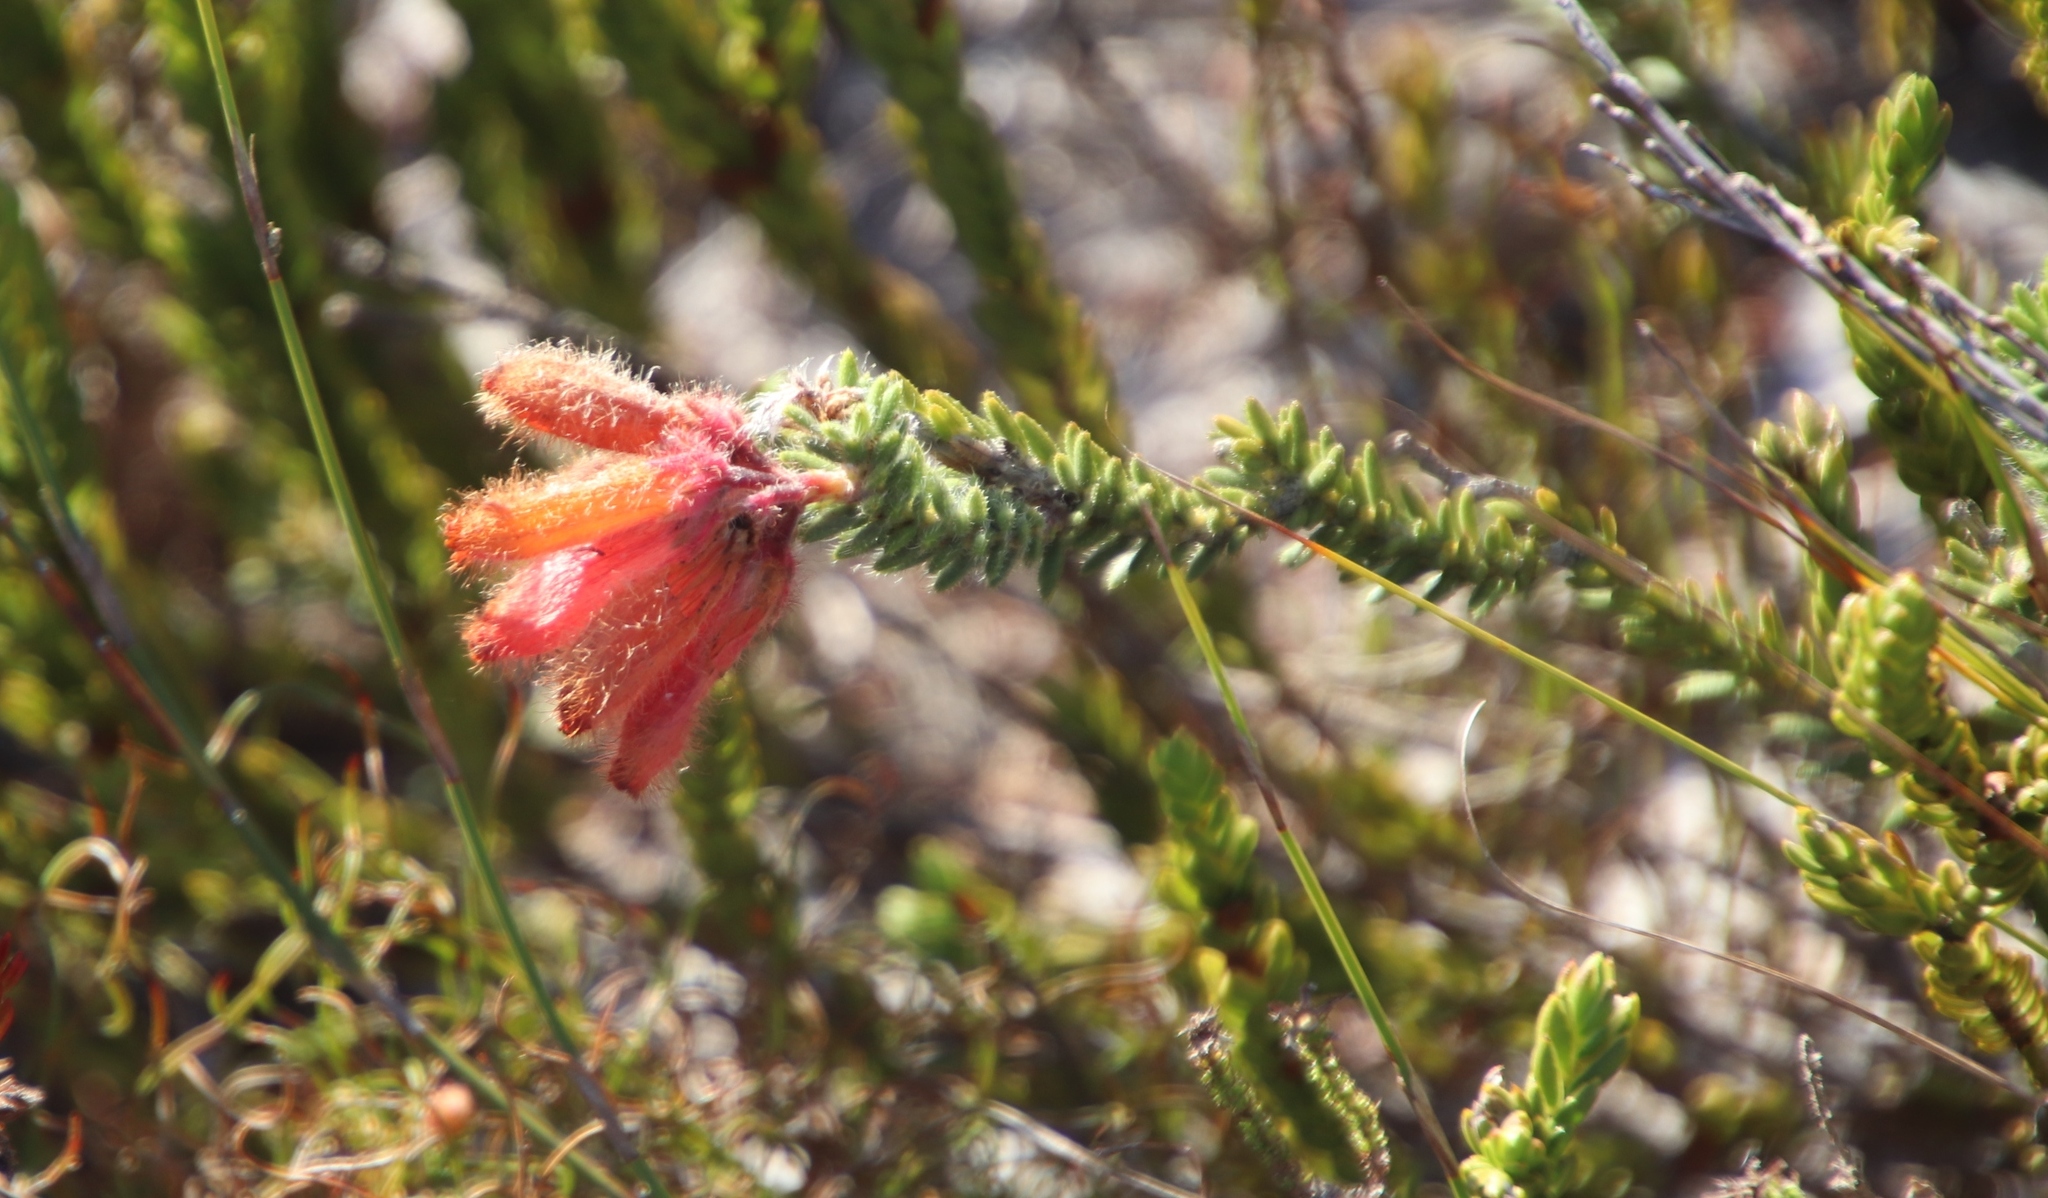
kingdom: Plantae
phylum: Tracheophyta
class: Magnoliopsida
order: Ericales
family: Ericaceae
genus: Erica
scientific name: Erica cerinthoides
